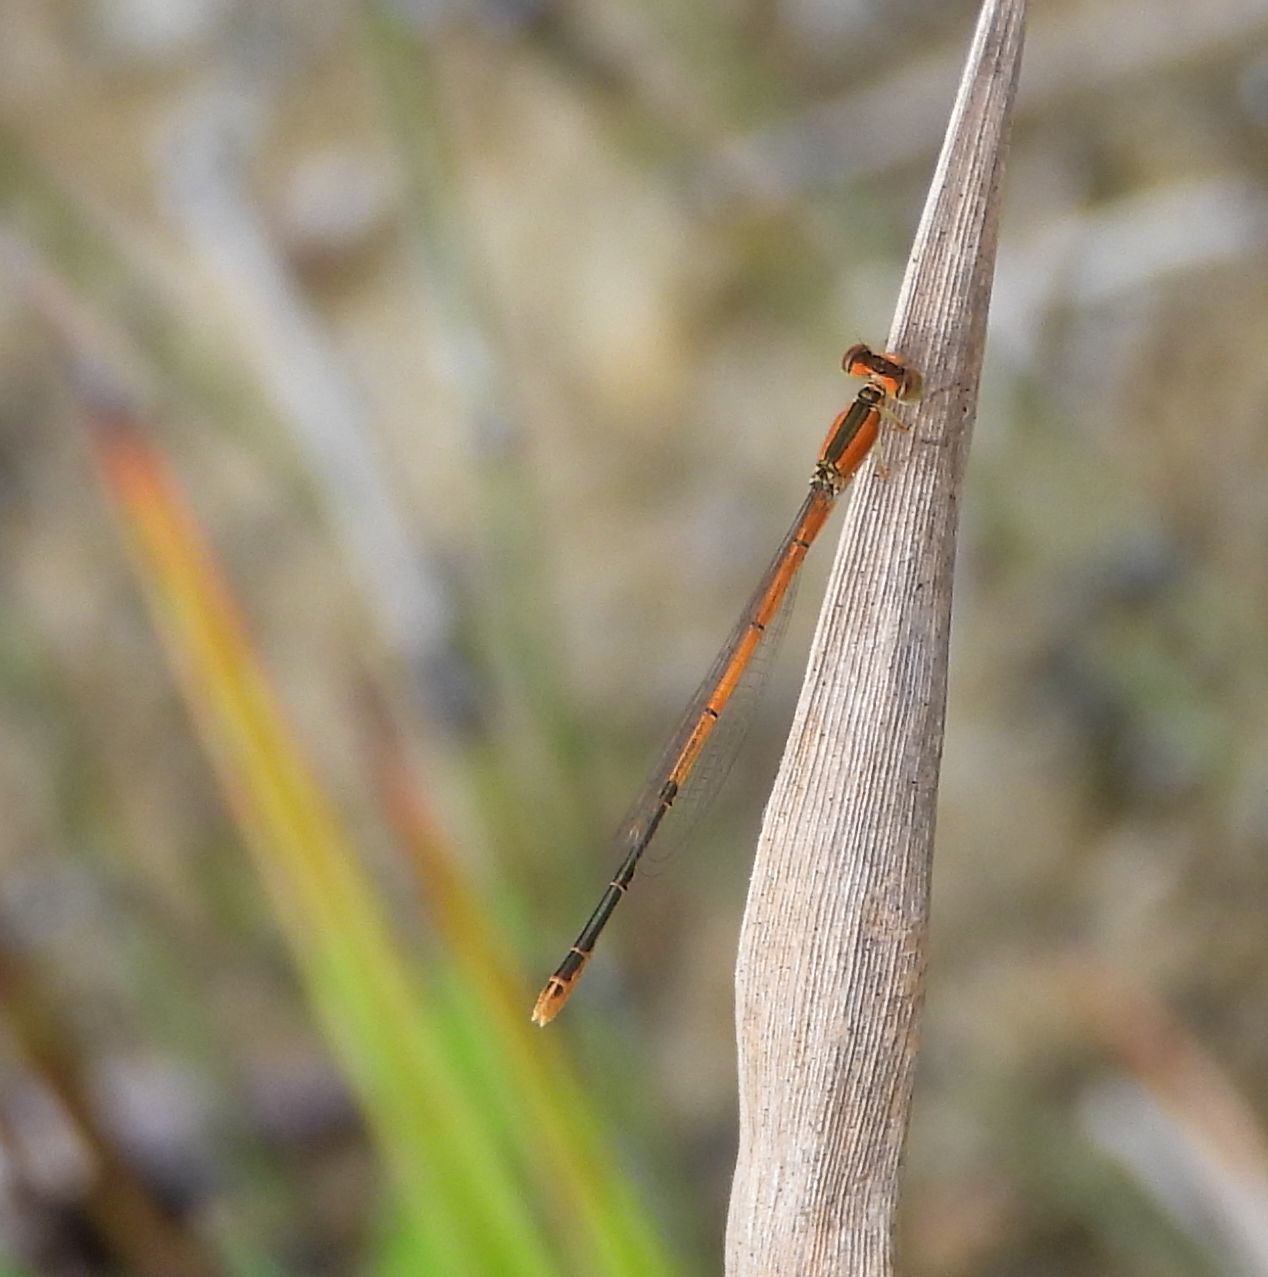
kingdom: Animalia
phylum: Arthropoda
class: Insecta
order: Odonata
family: Coenagrionidae
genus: Ischnura
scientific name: Ischnura hastata
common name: Citrine forktail
